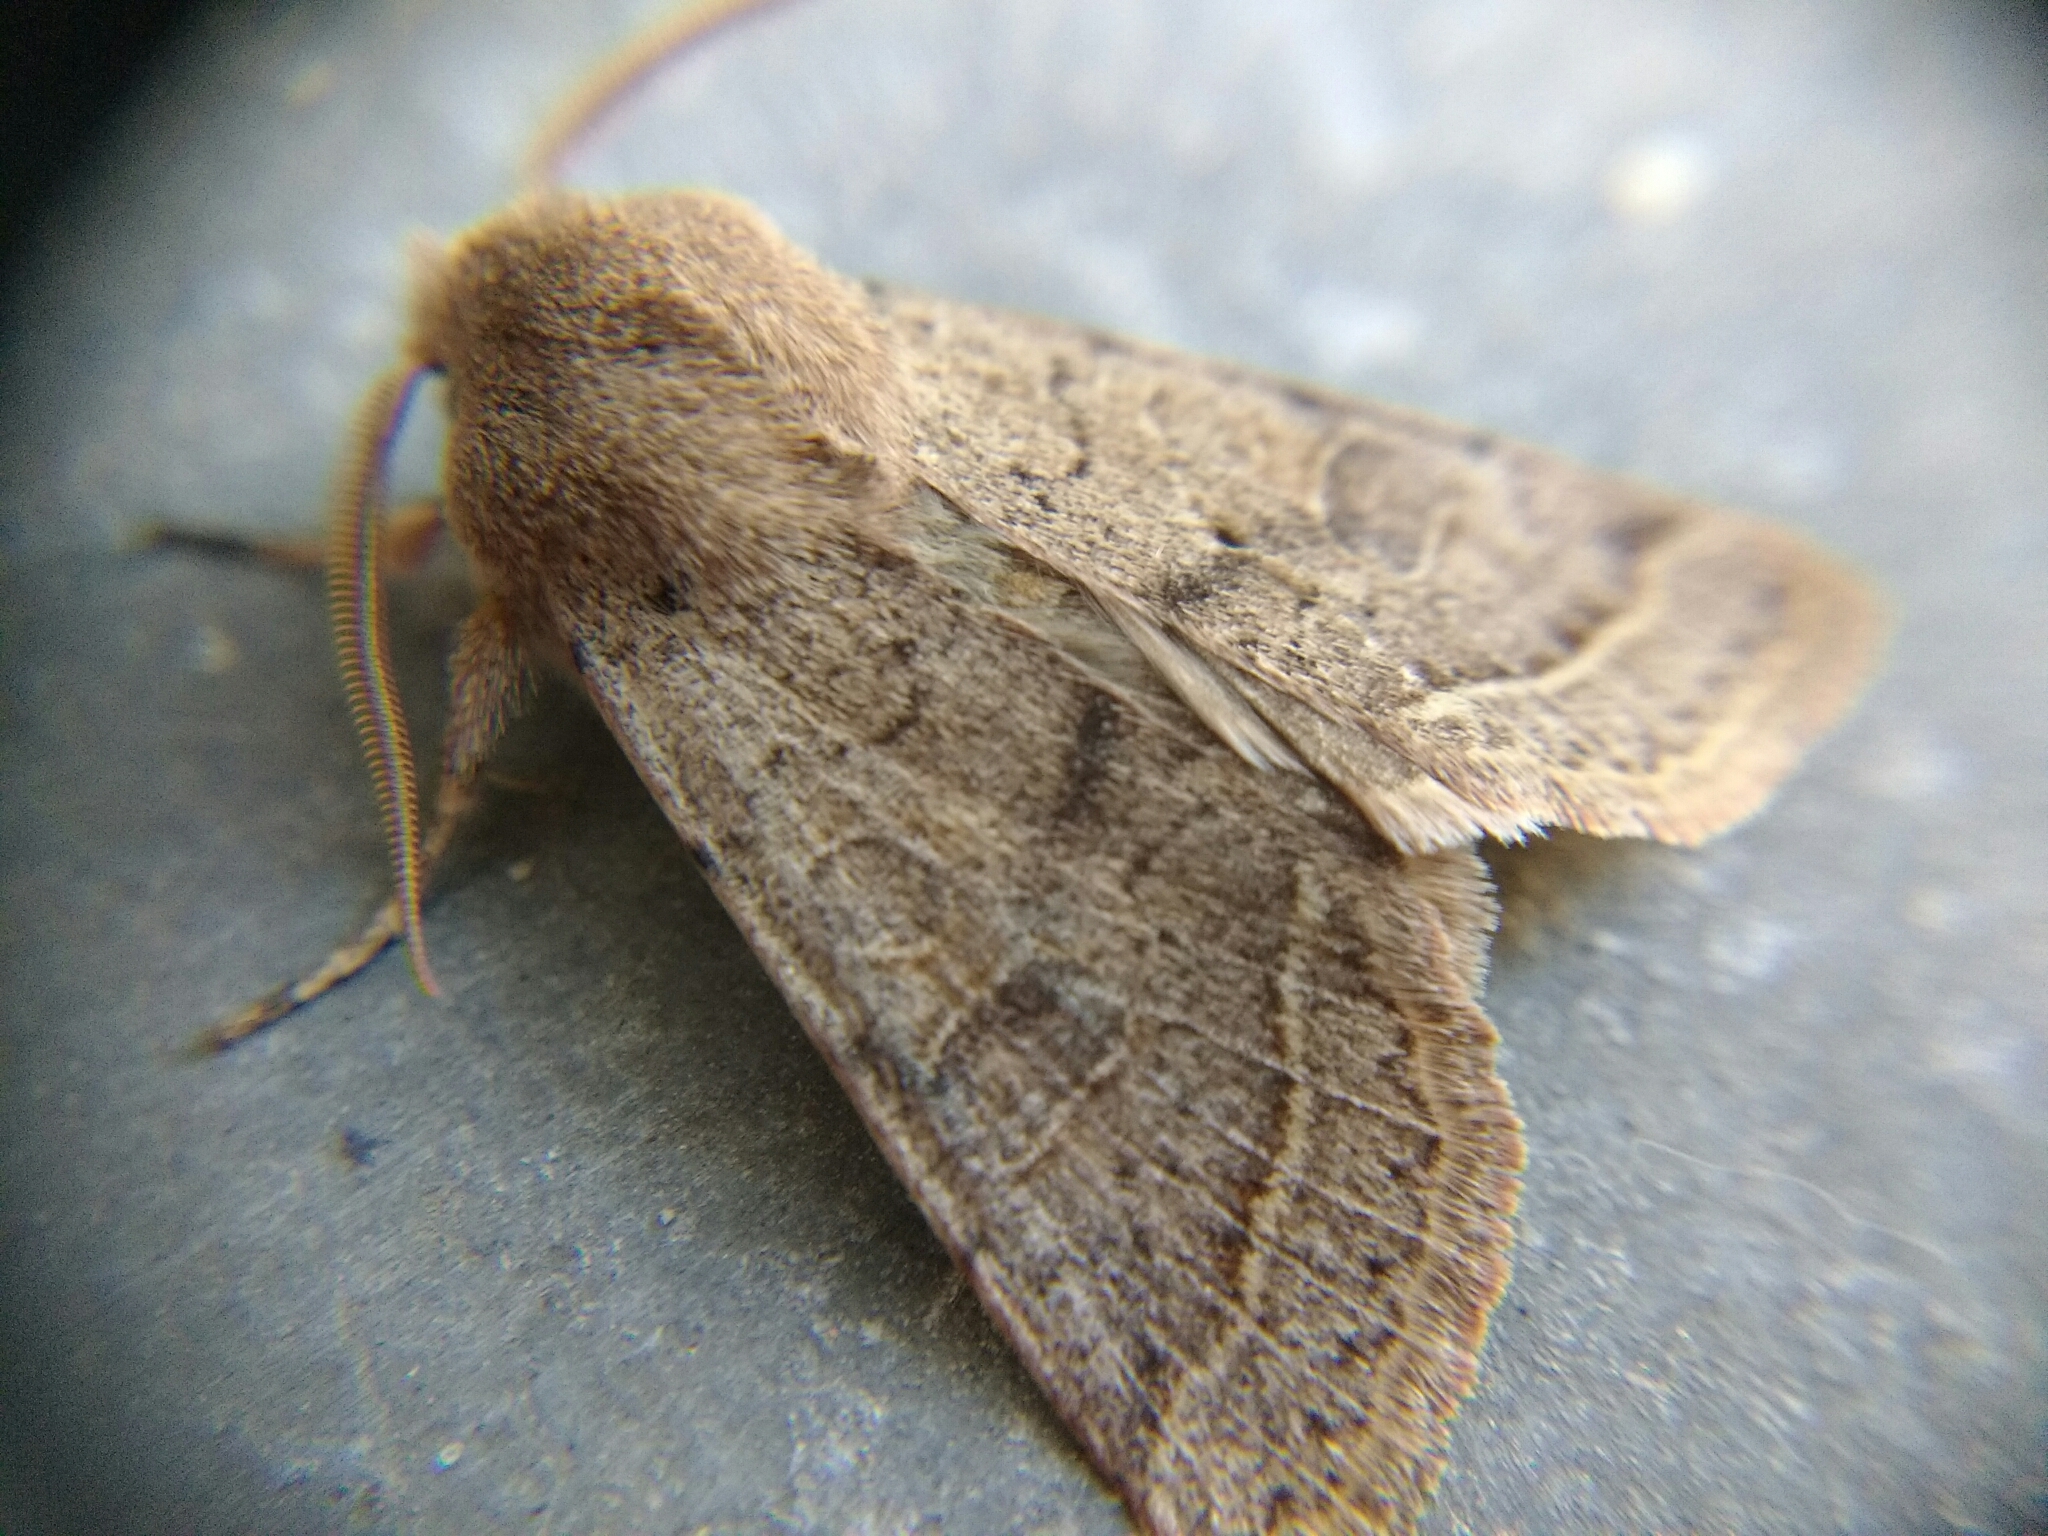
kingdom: Animalia
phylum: Arthropoda
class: Insecta
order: Lepidoptera
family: Noctuidae
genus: Orthosia
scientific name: Orthosia cerasi
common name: Common quaker
